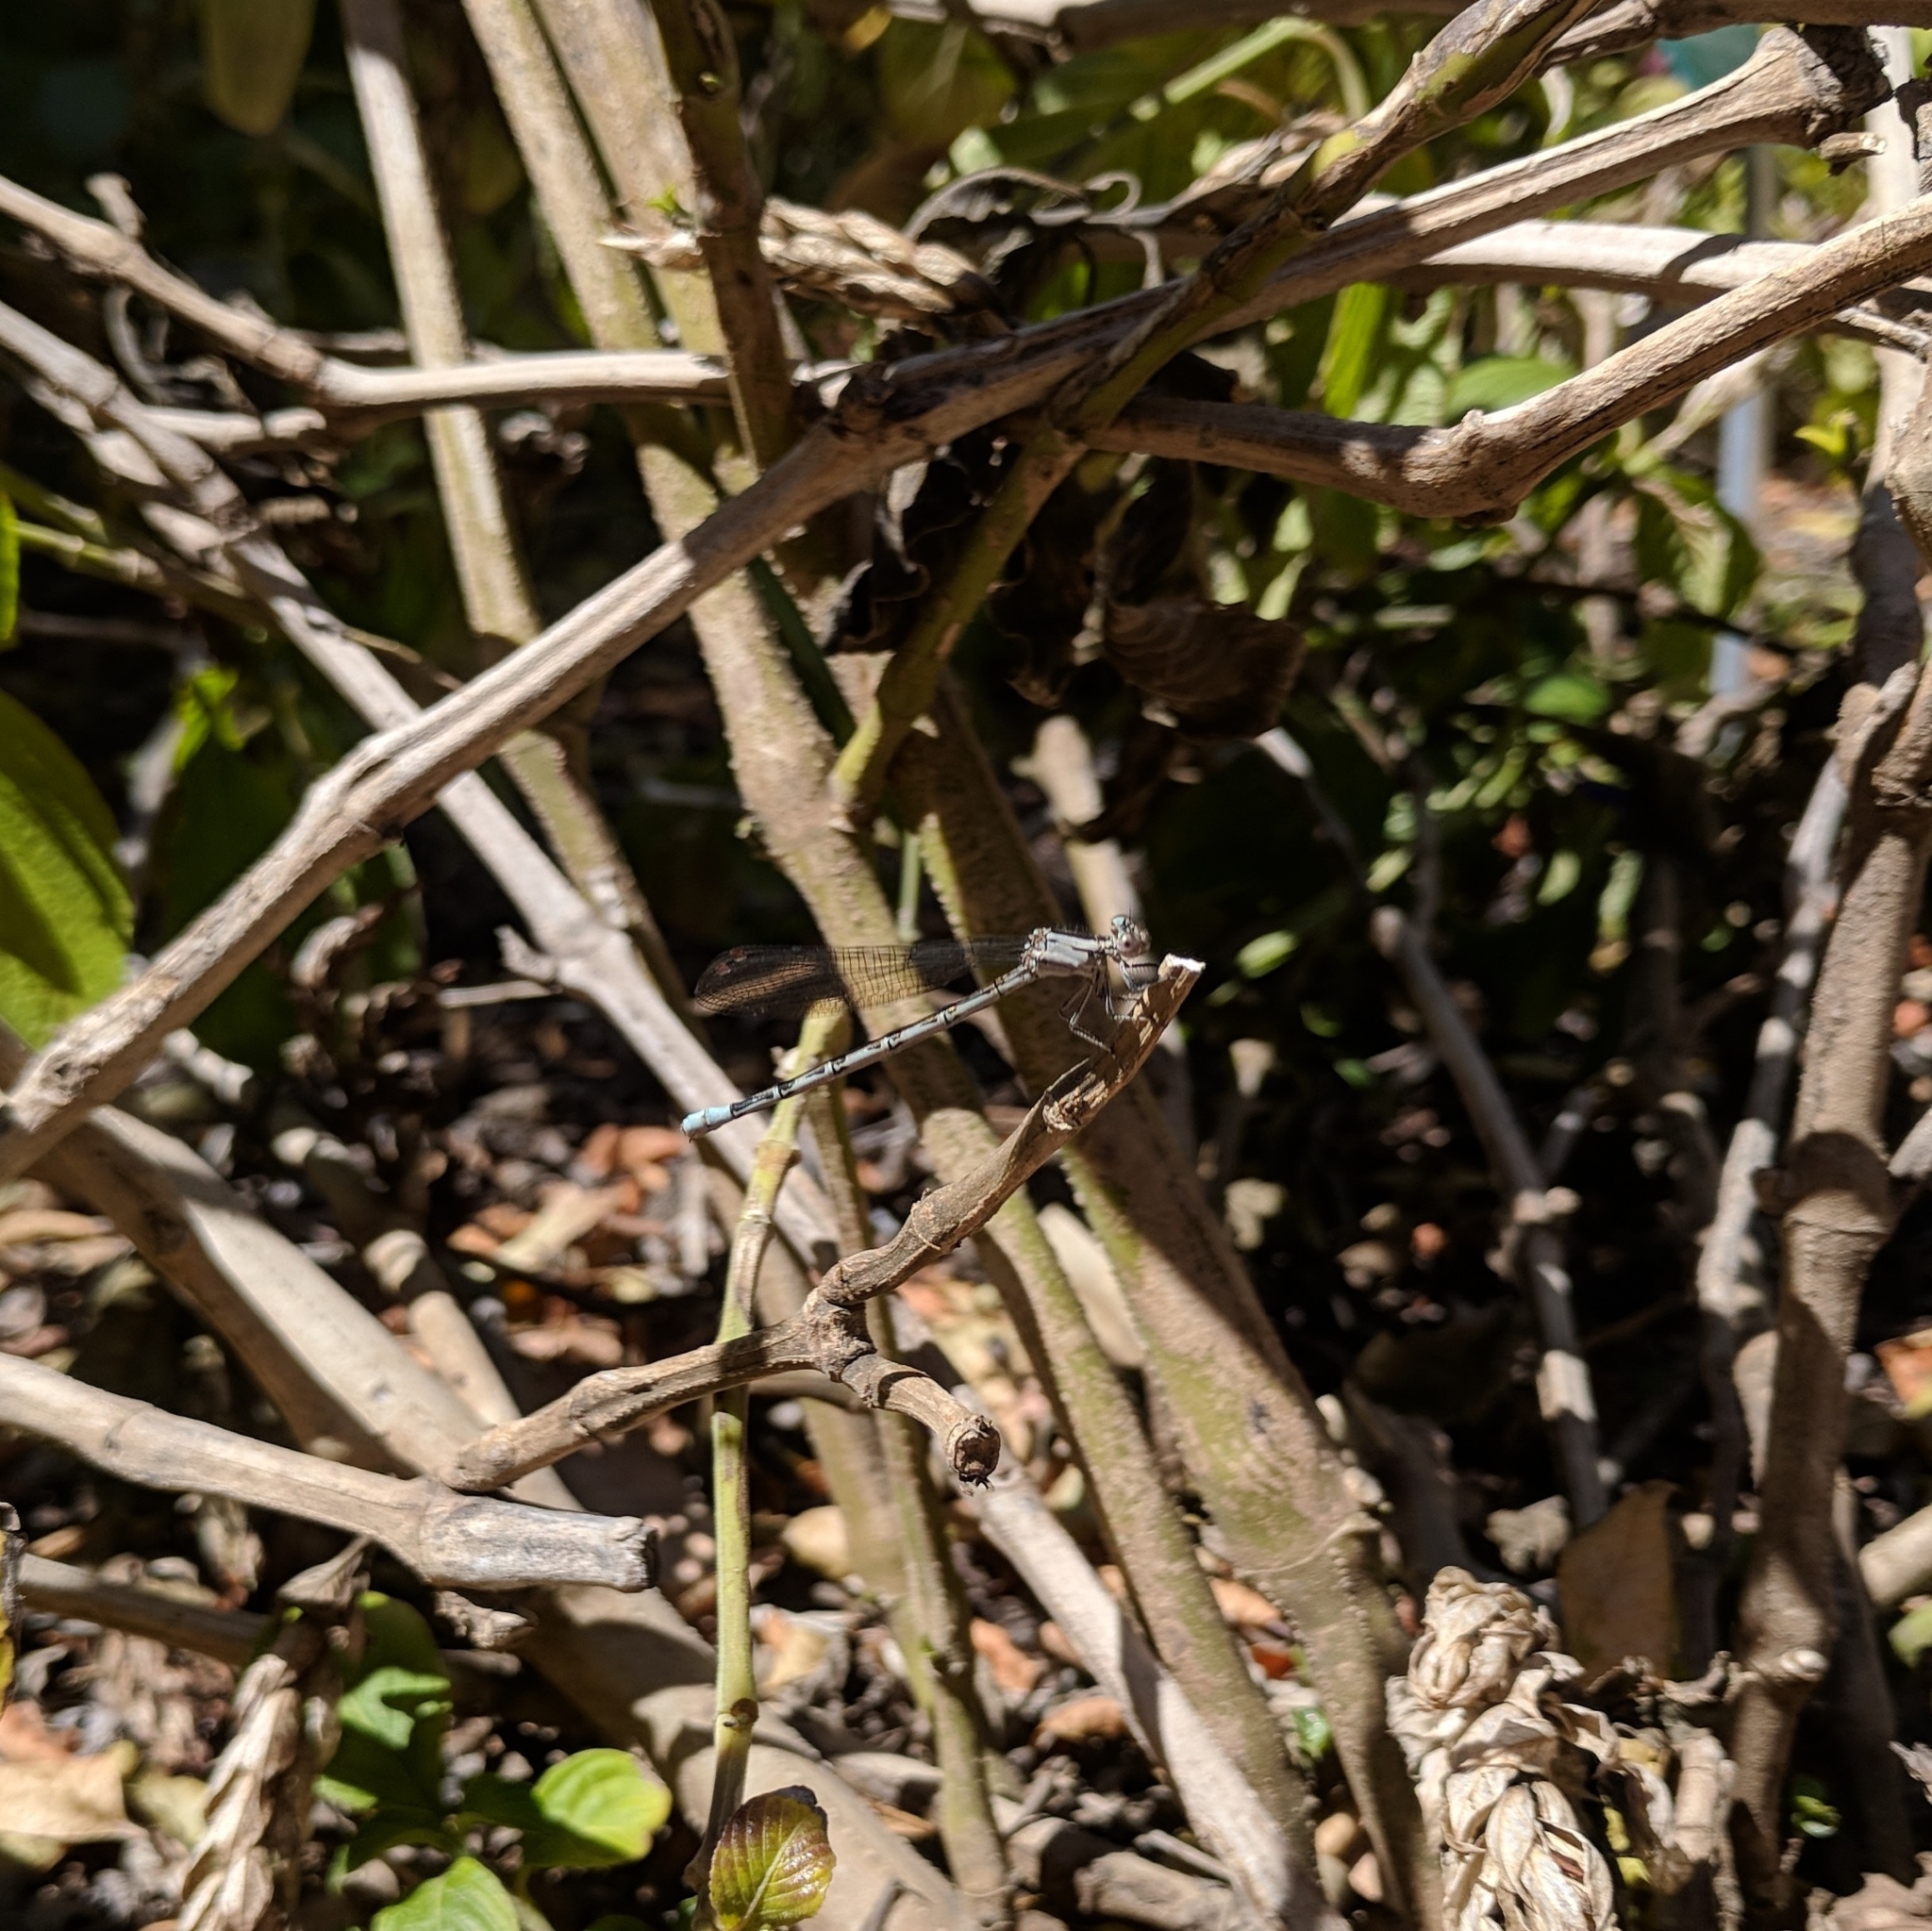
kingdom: Animalia
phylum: Arthropoda
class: Insecta
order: Odonata
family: Coenagrionidae
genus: Argia
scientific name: Argia vivida
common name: Vivid dancer
